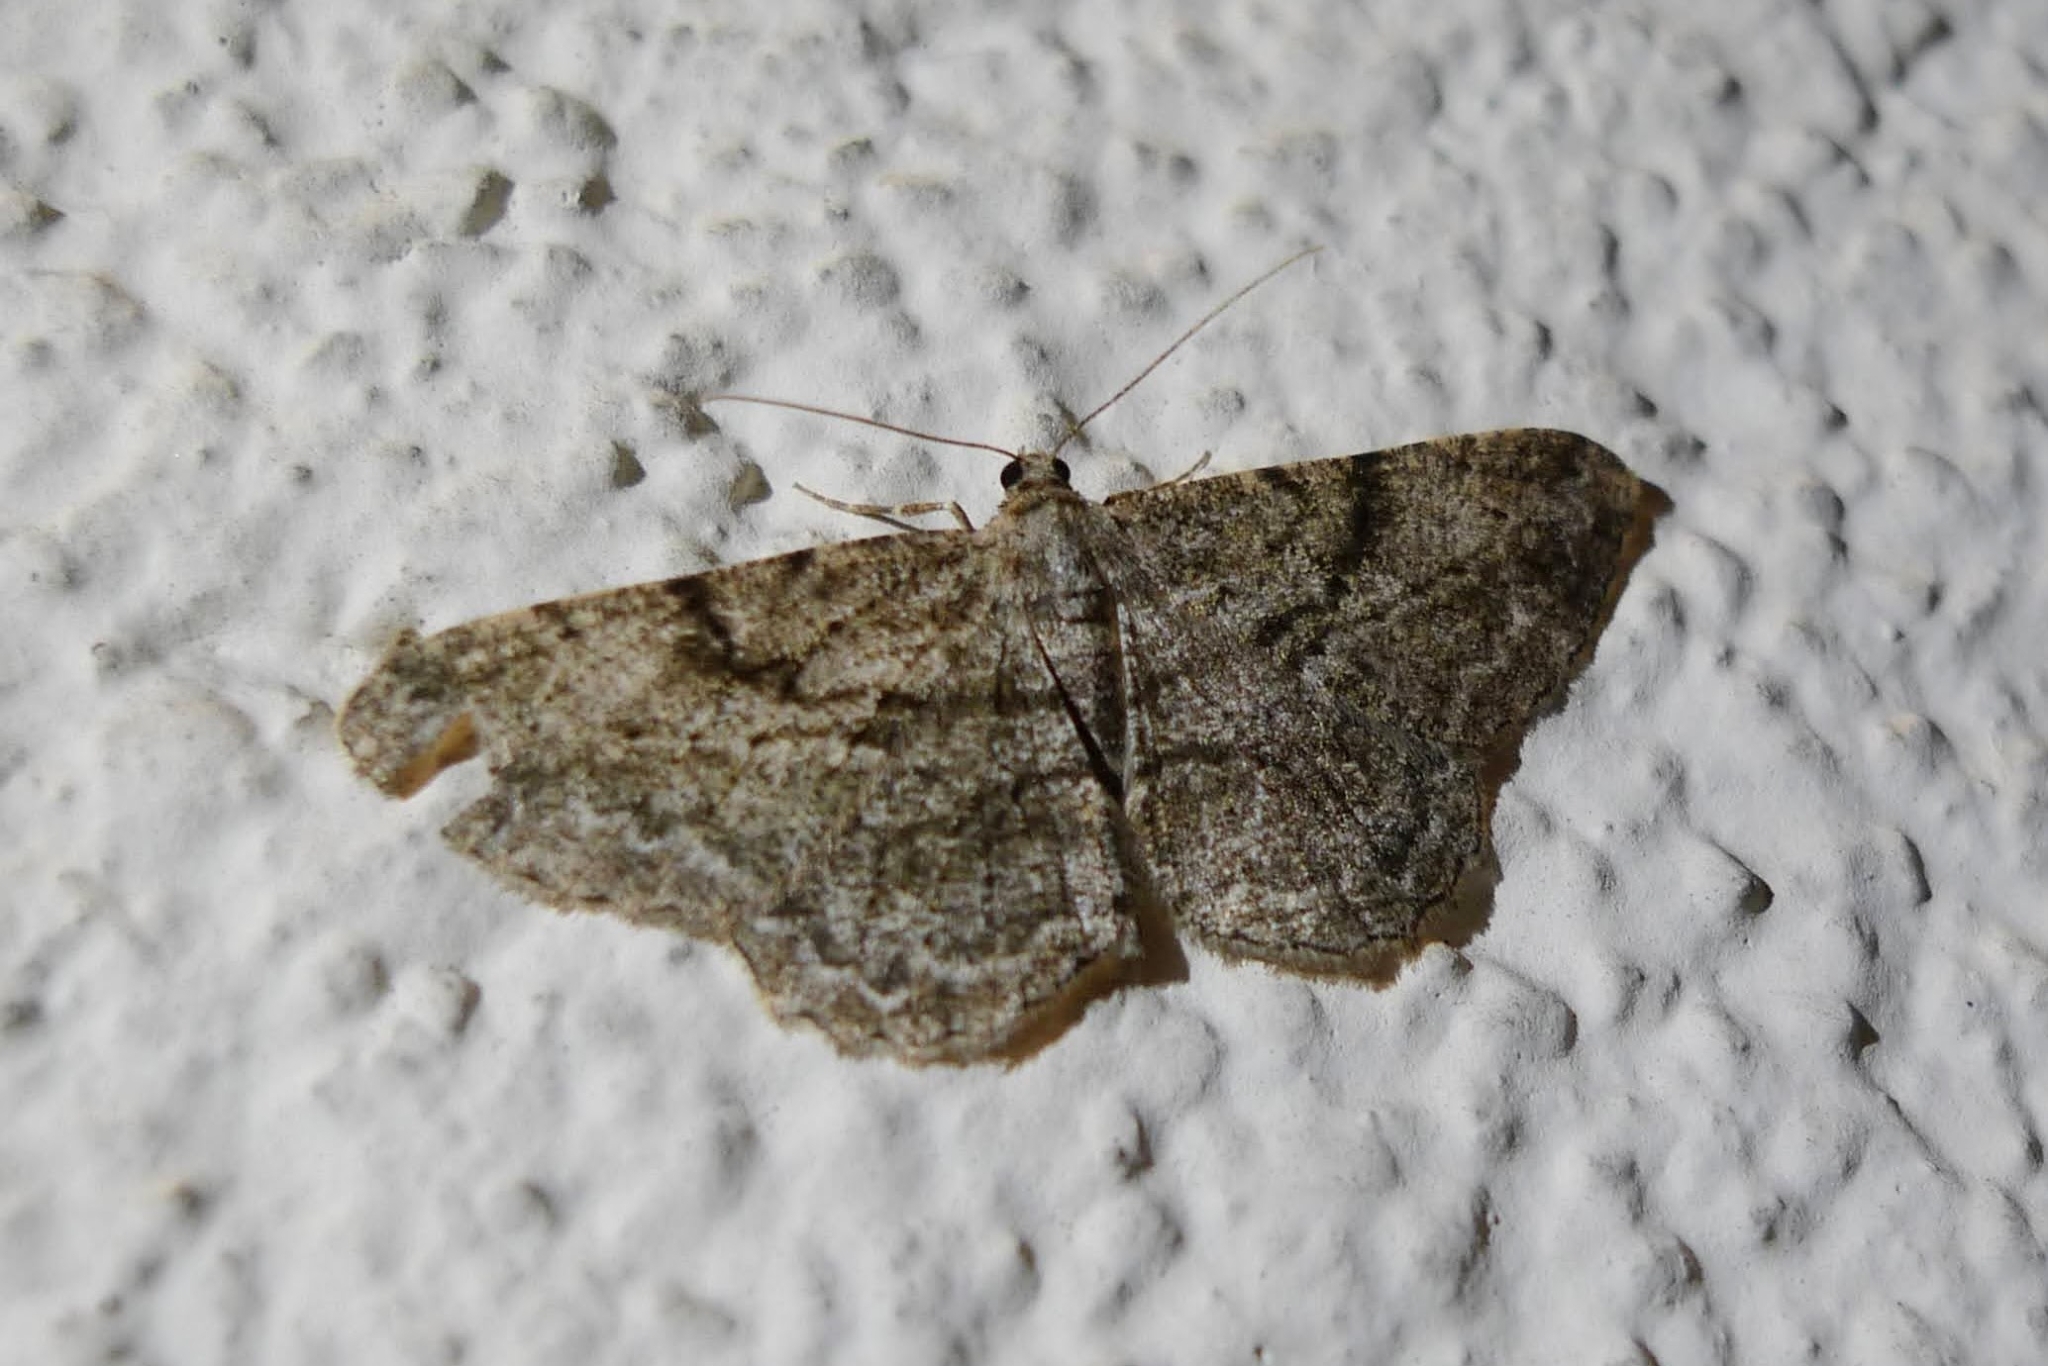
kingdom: Animalia
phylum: Arthropoda
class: Insecta
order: Lepidoptera
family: Geometridae
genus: Peribatodes
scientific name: Peribatodes rhomboidaria
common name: Willow beauty
